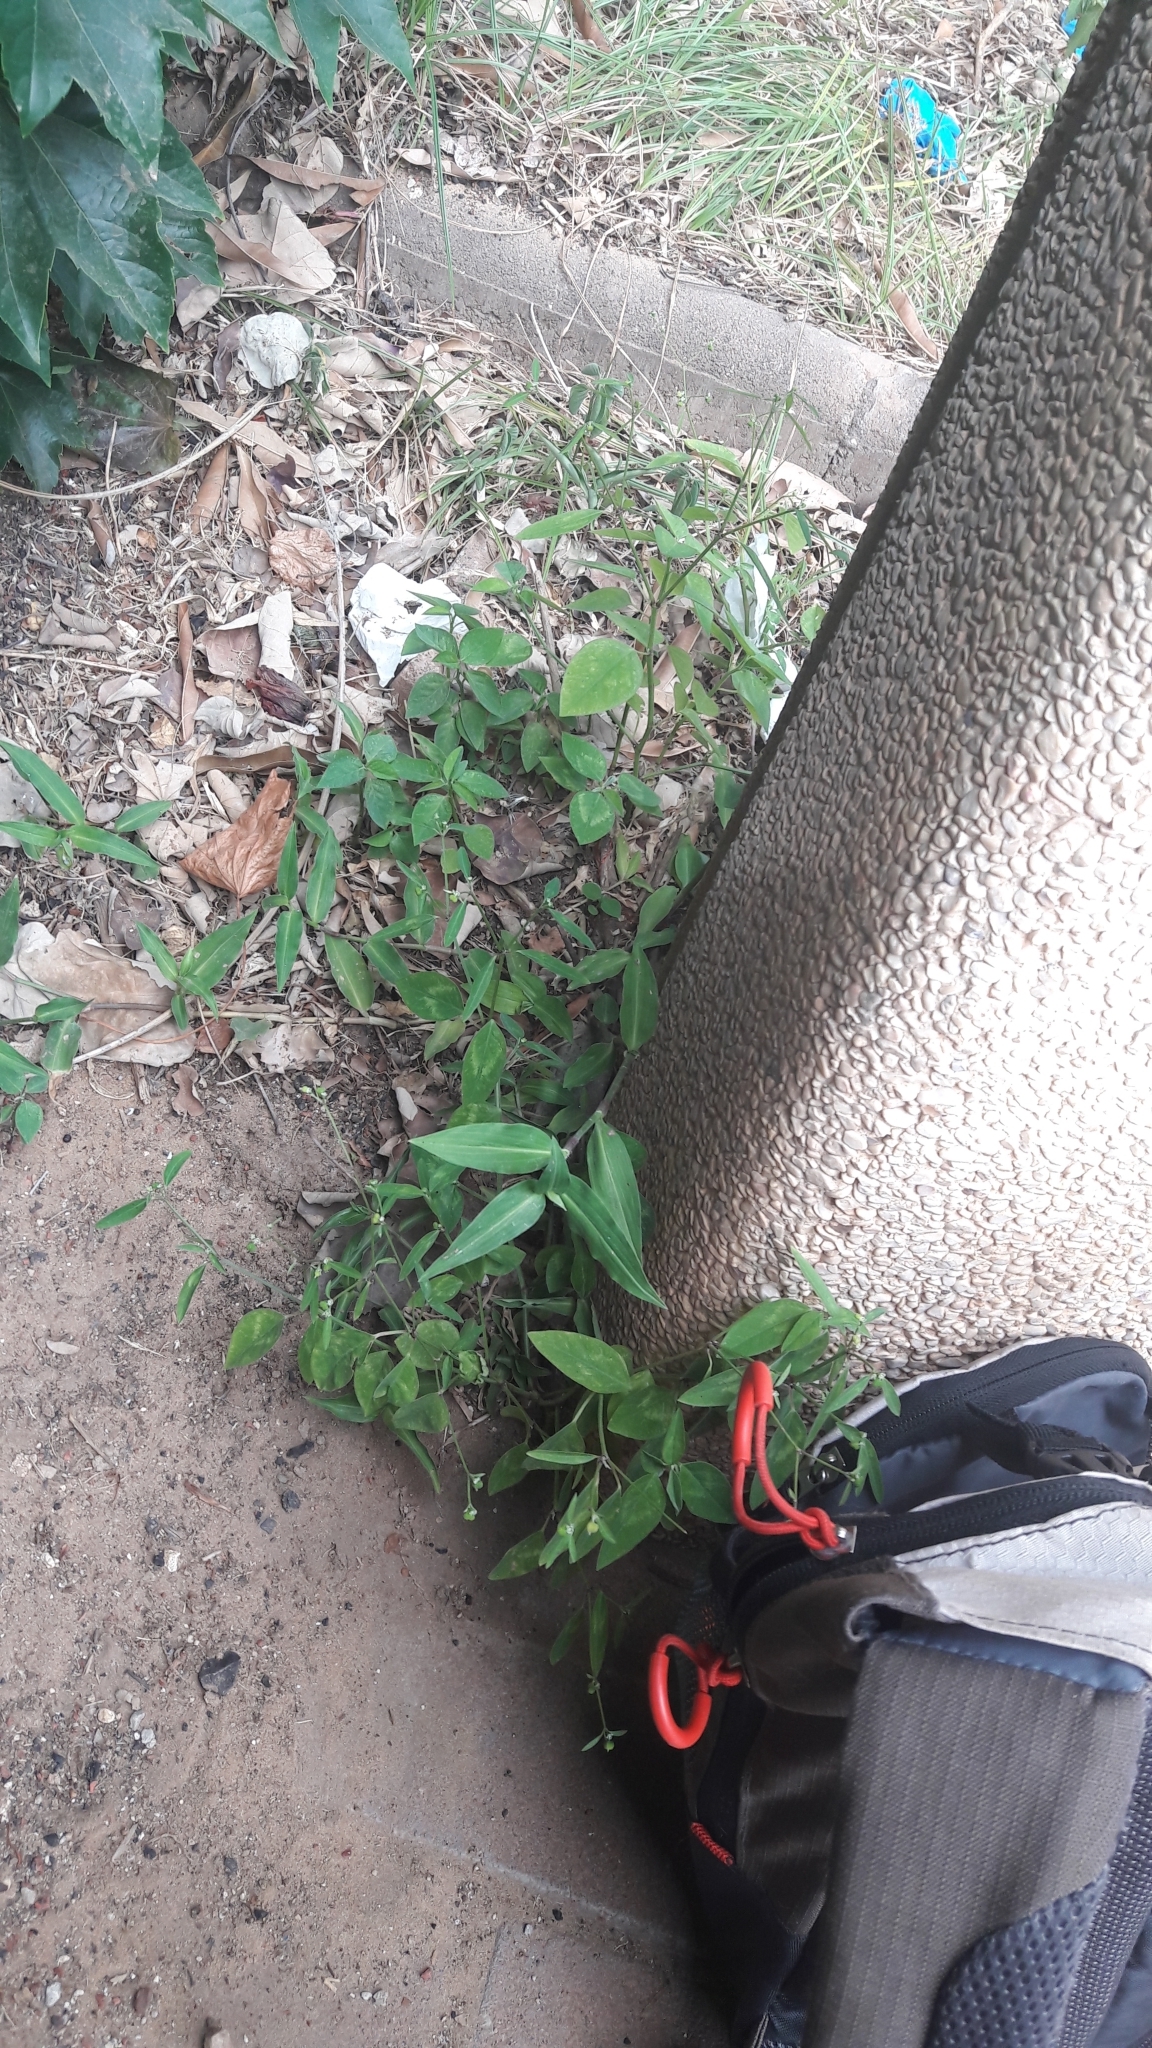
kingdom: Plantae
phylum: Tracheophyta
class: Magnoliopsida
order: Malpighiales
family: Euphorbiaceae
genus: Euphorbia
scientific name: Euphorbia graminea
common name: Grassleaf spurge
